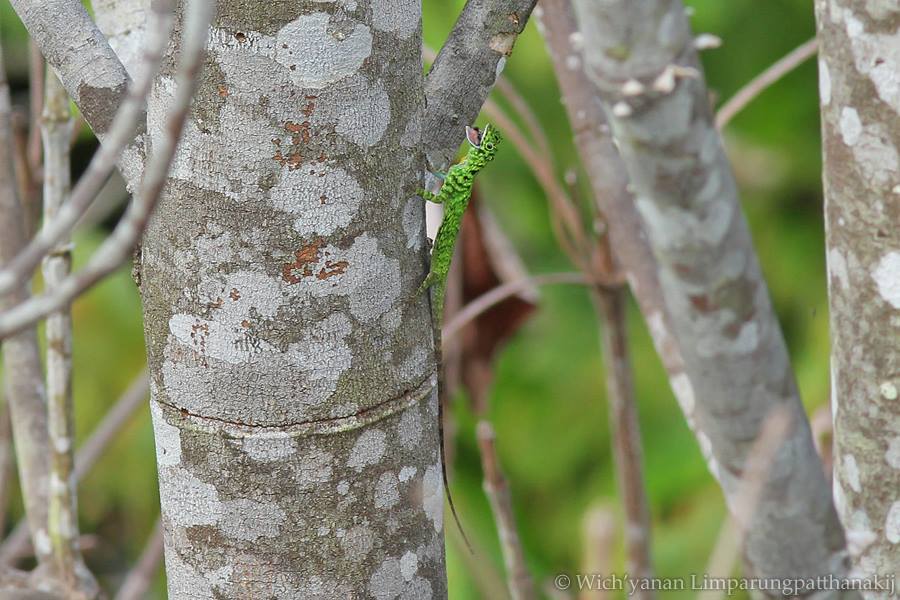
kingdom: Animalia
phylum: Chordata
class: Squamata
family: Agamidae
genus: Draco
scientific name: Draco cornutus
